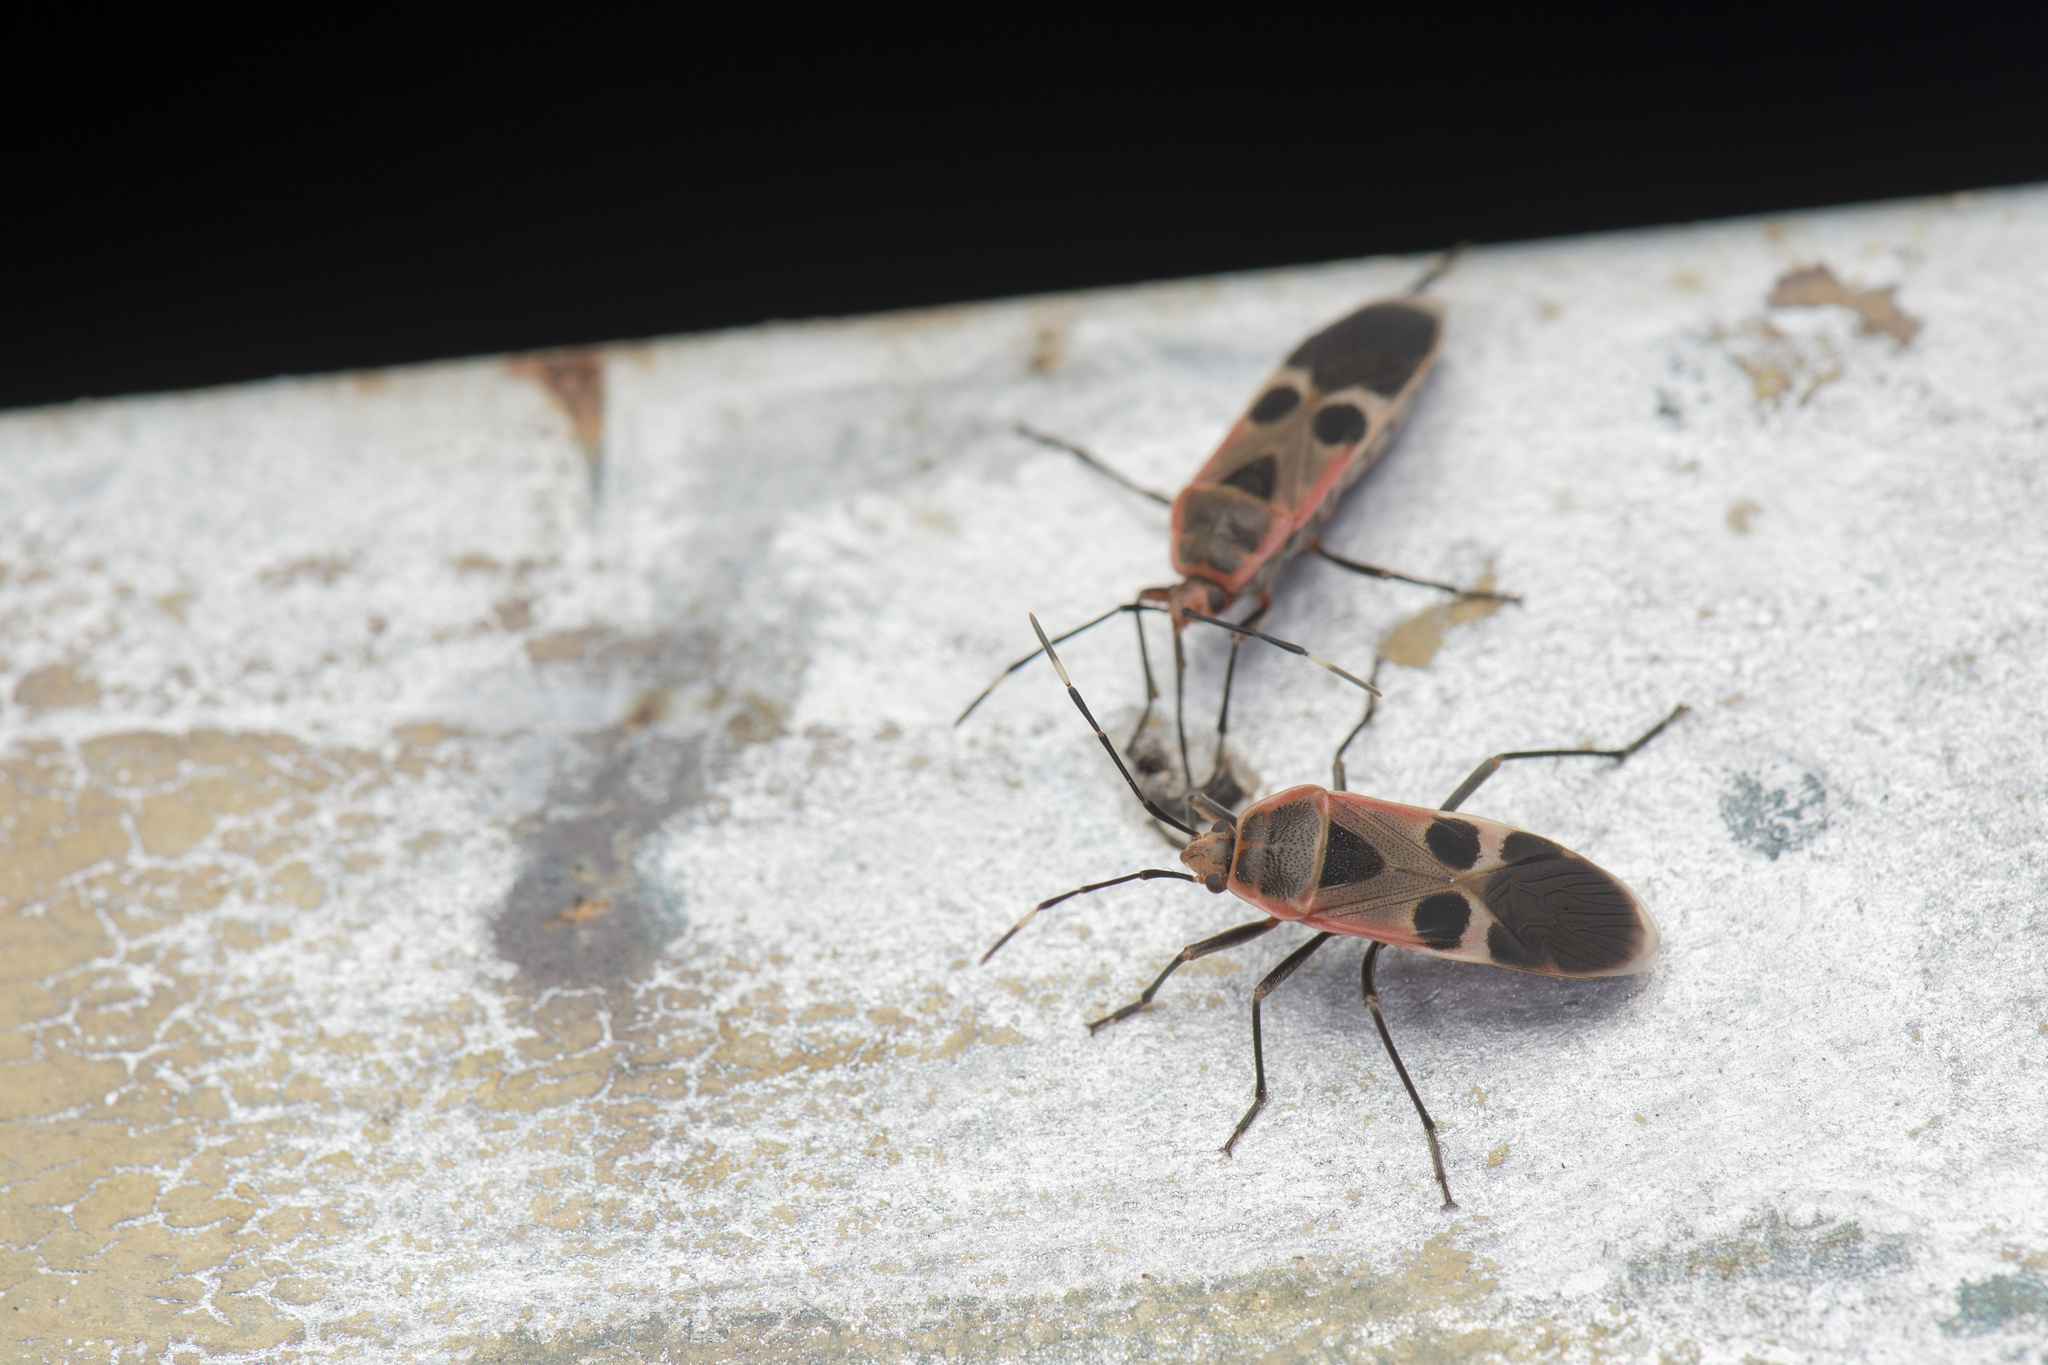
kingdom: Animalia
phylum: Arthropoda
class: Insecta
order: Hemiptera
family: Largidae
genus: Physopelta
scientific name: Physopelta gutta
